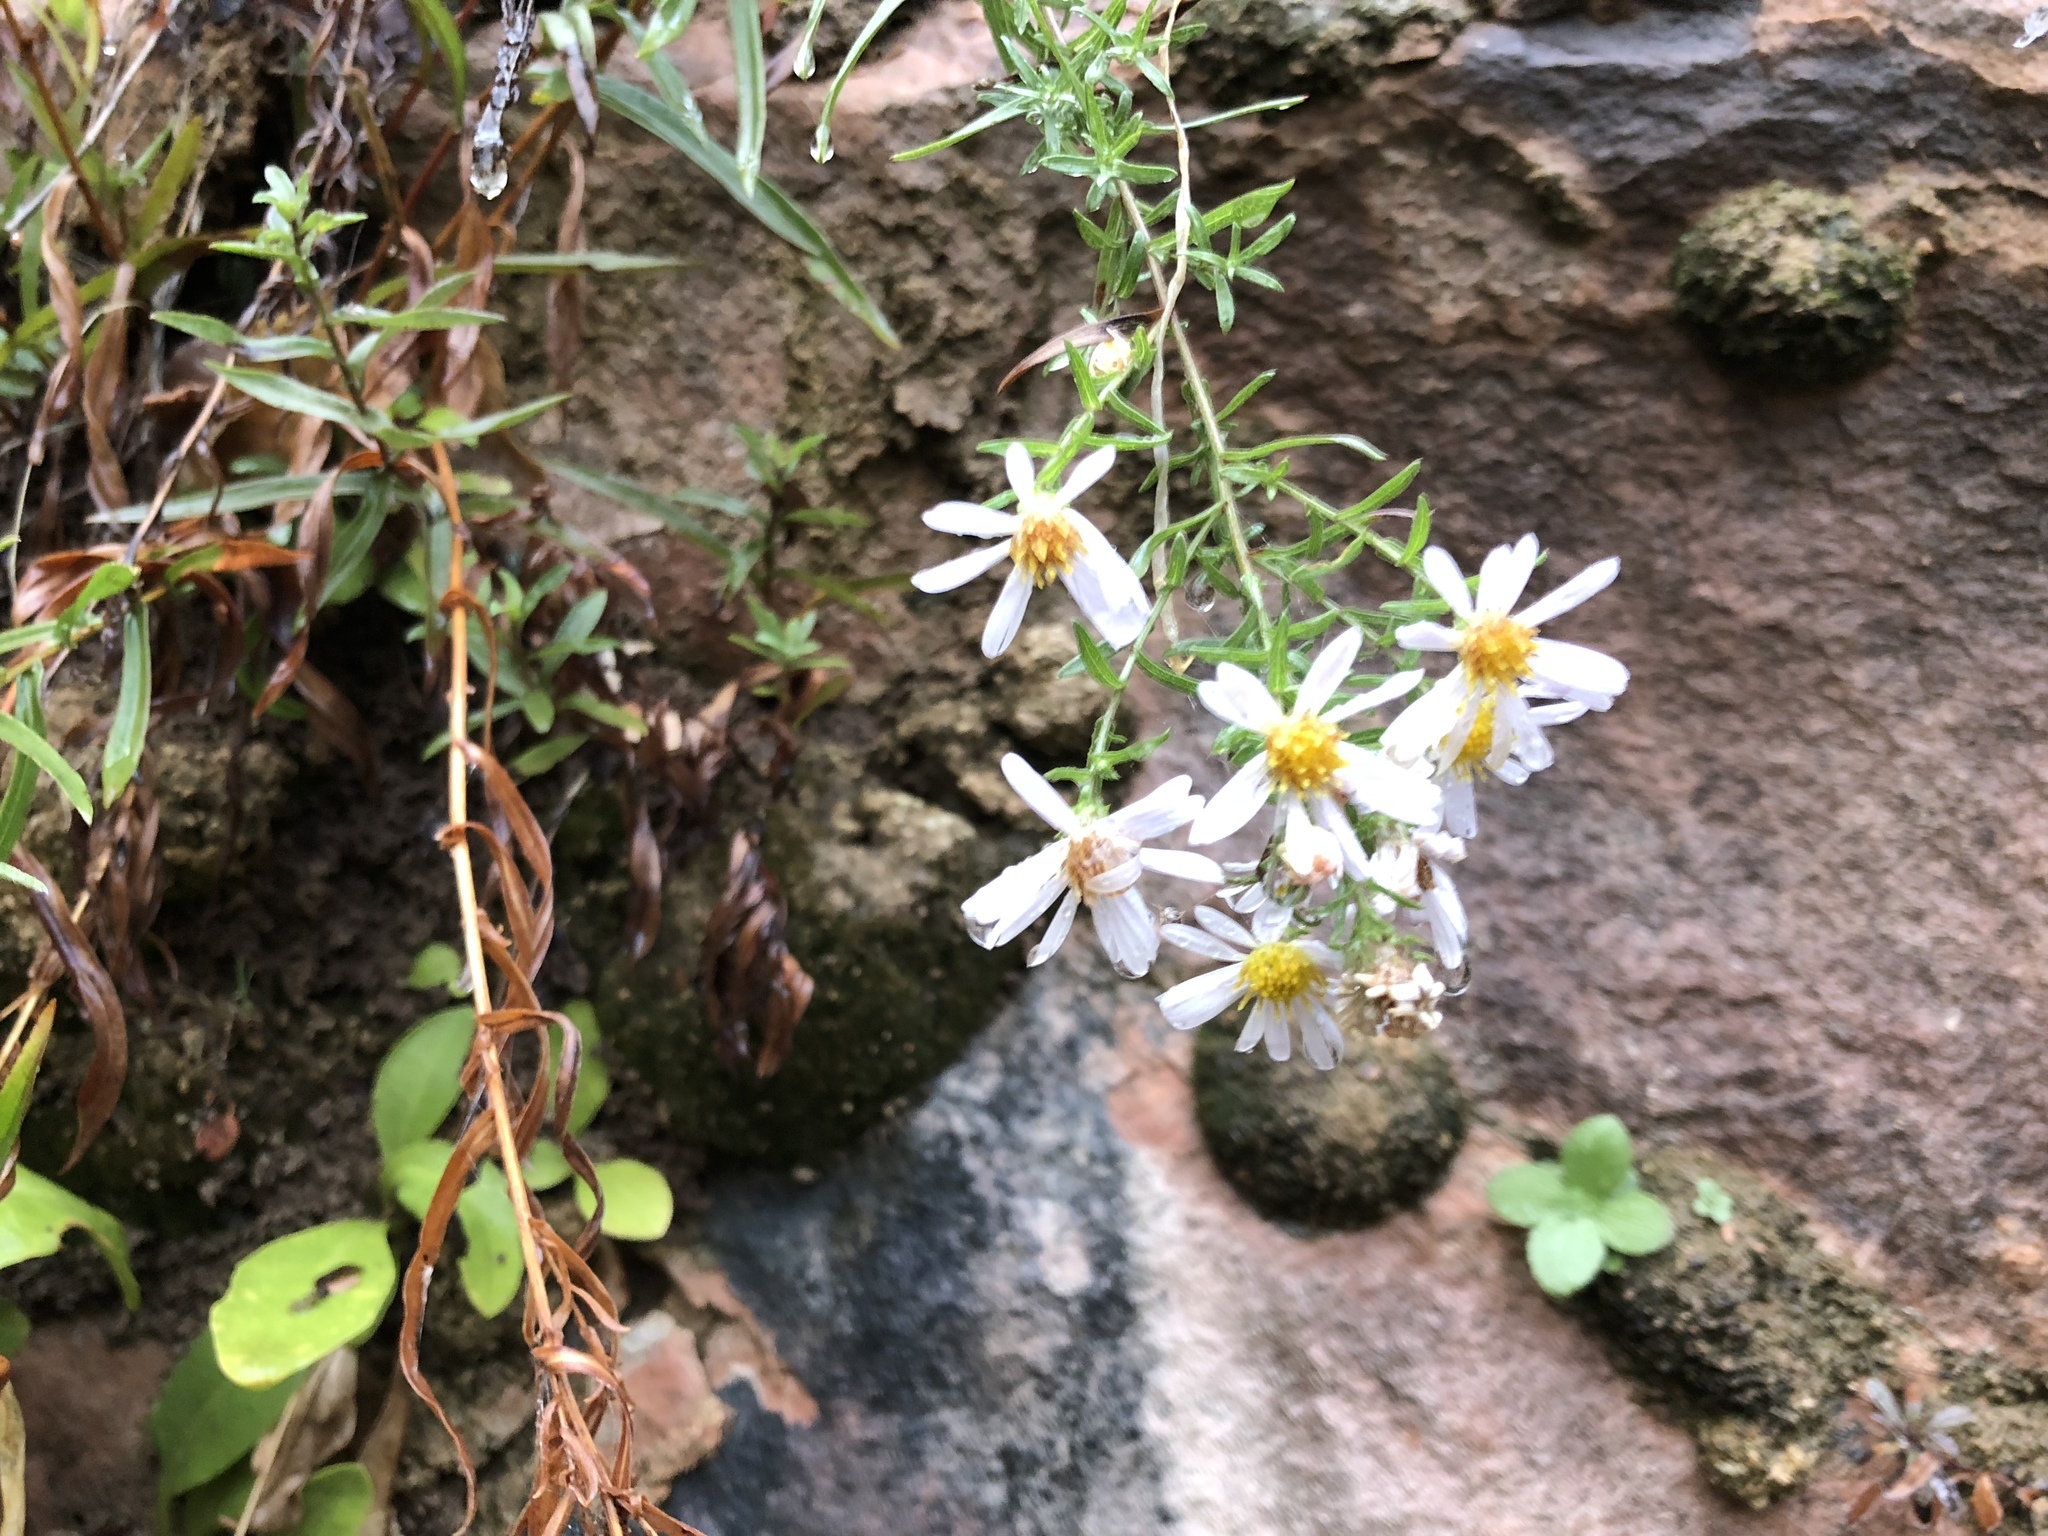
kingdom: Plantae
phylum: Tracheophyta
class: Magnoliopsida
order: Asterales
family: Asteraceae
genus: Symphyotrichum
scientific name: Symphyotrichum welshii
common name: Welsh's aster
